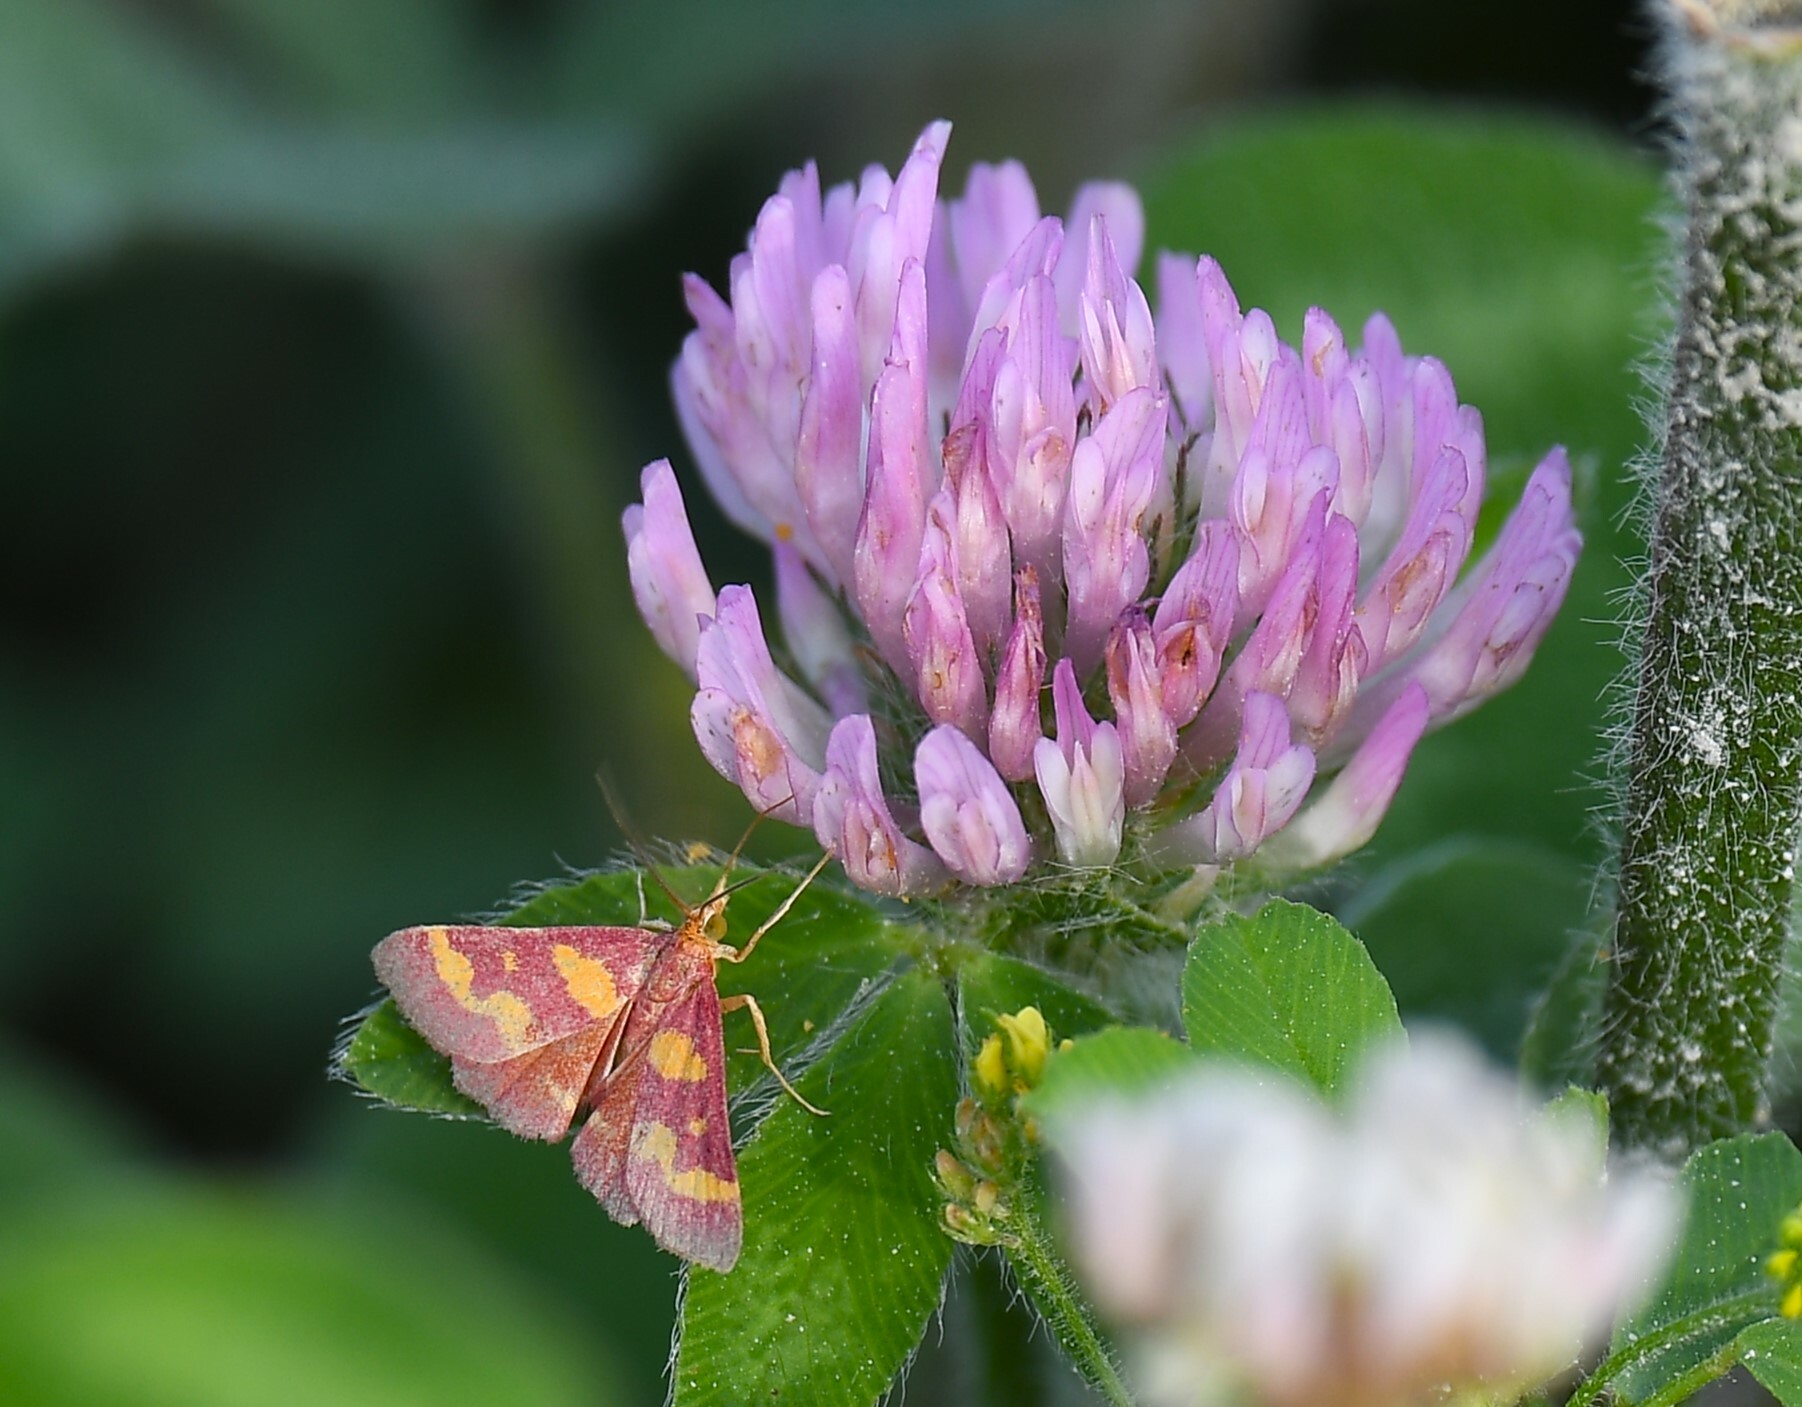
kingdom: Animalia
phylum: Arthropoda
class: Insecta
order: Lepidoptera
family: Crambidae
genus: Pyrausta
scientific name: Pyrausta tyralis
